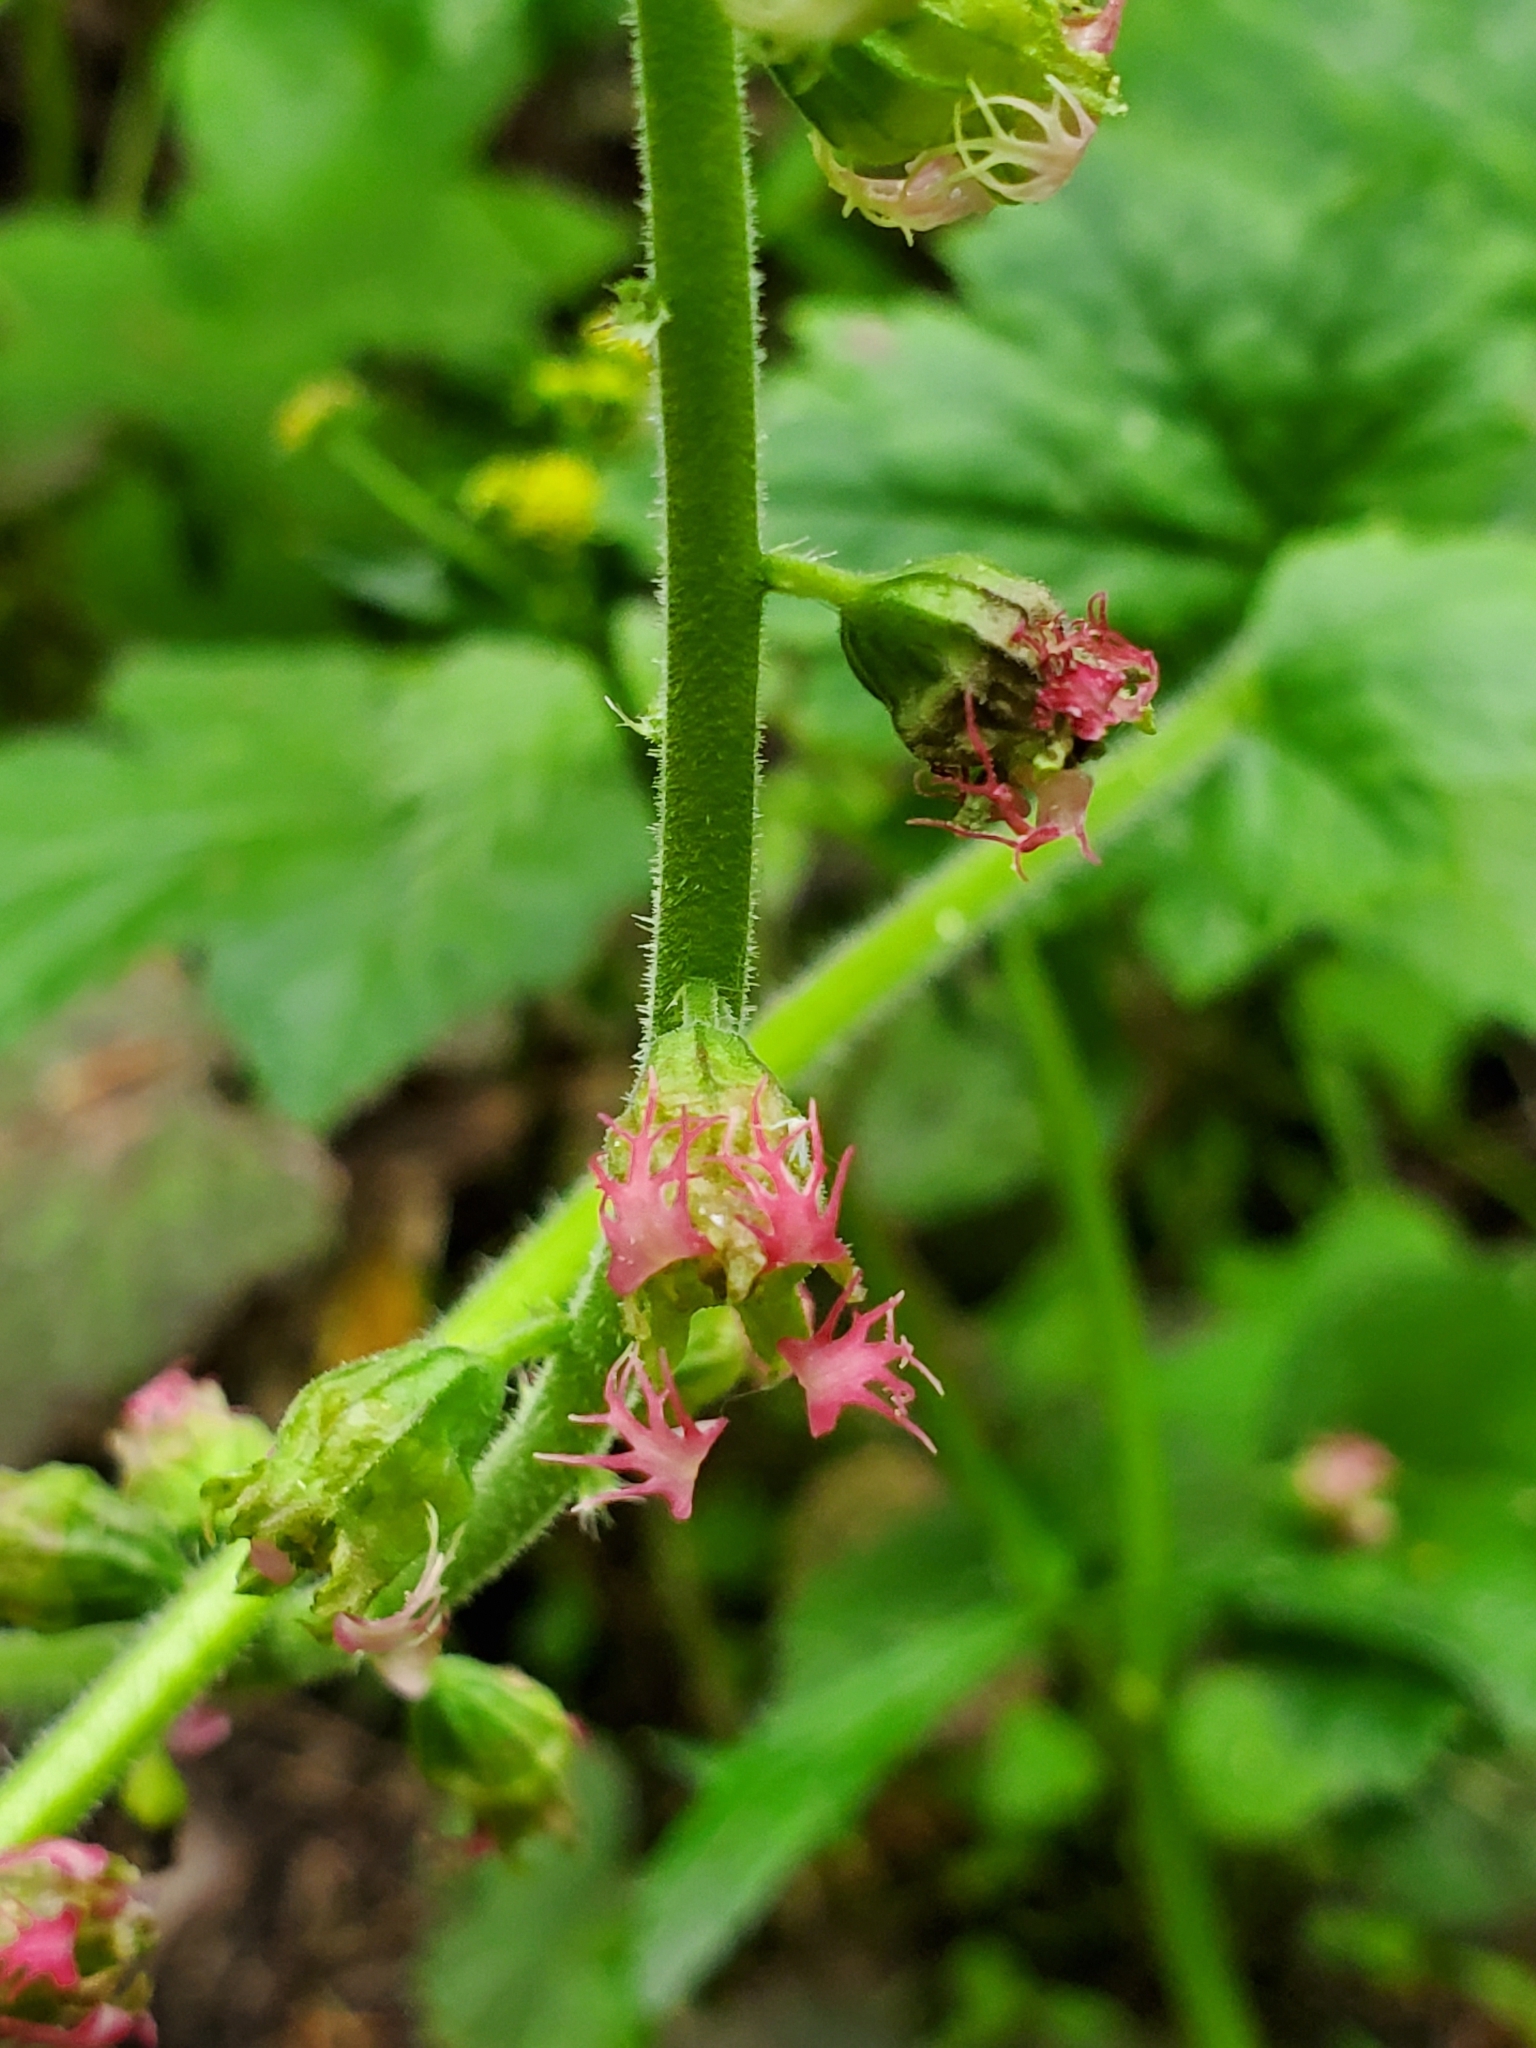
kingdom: Plantae
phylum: Tracheophyta
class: Magnoliopsida
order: Saxifragales
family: Saxifragaceae
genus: Tellima
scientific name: Tellima grandiflora
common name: Fringecups
